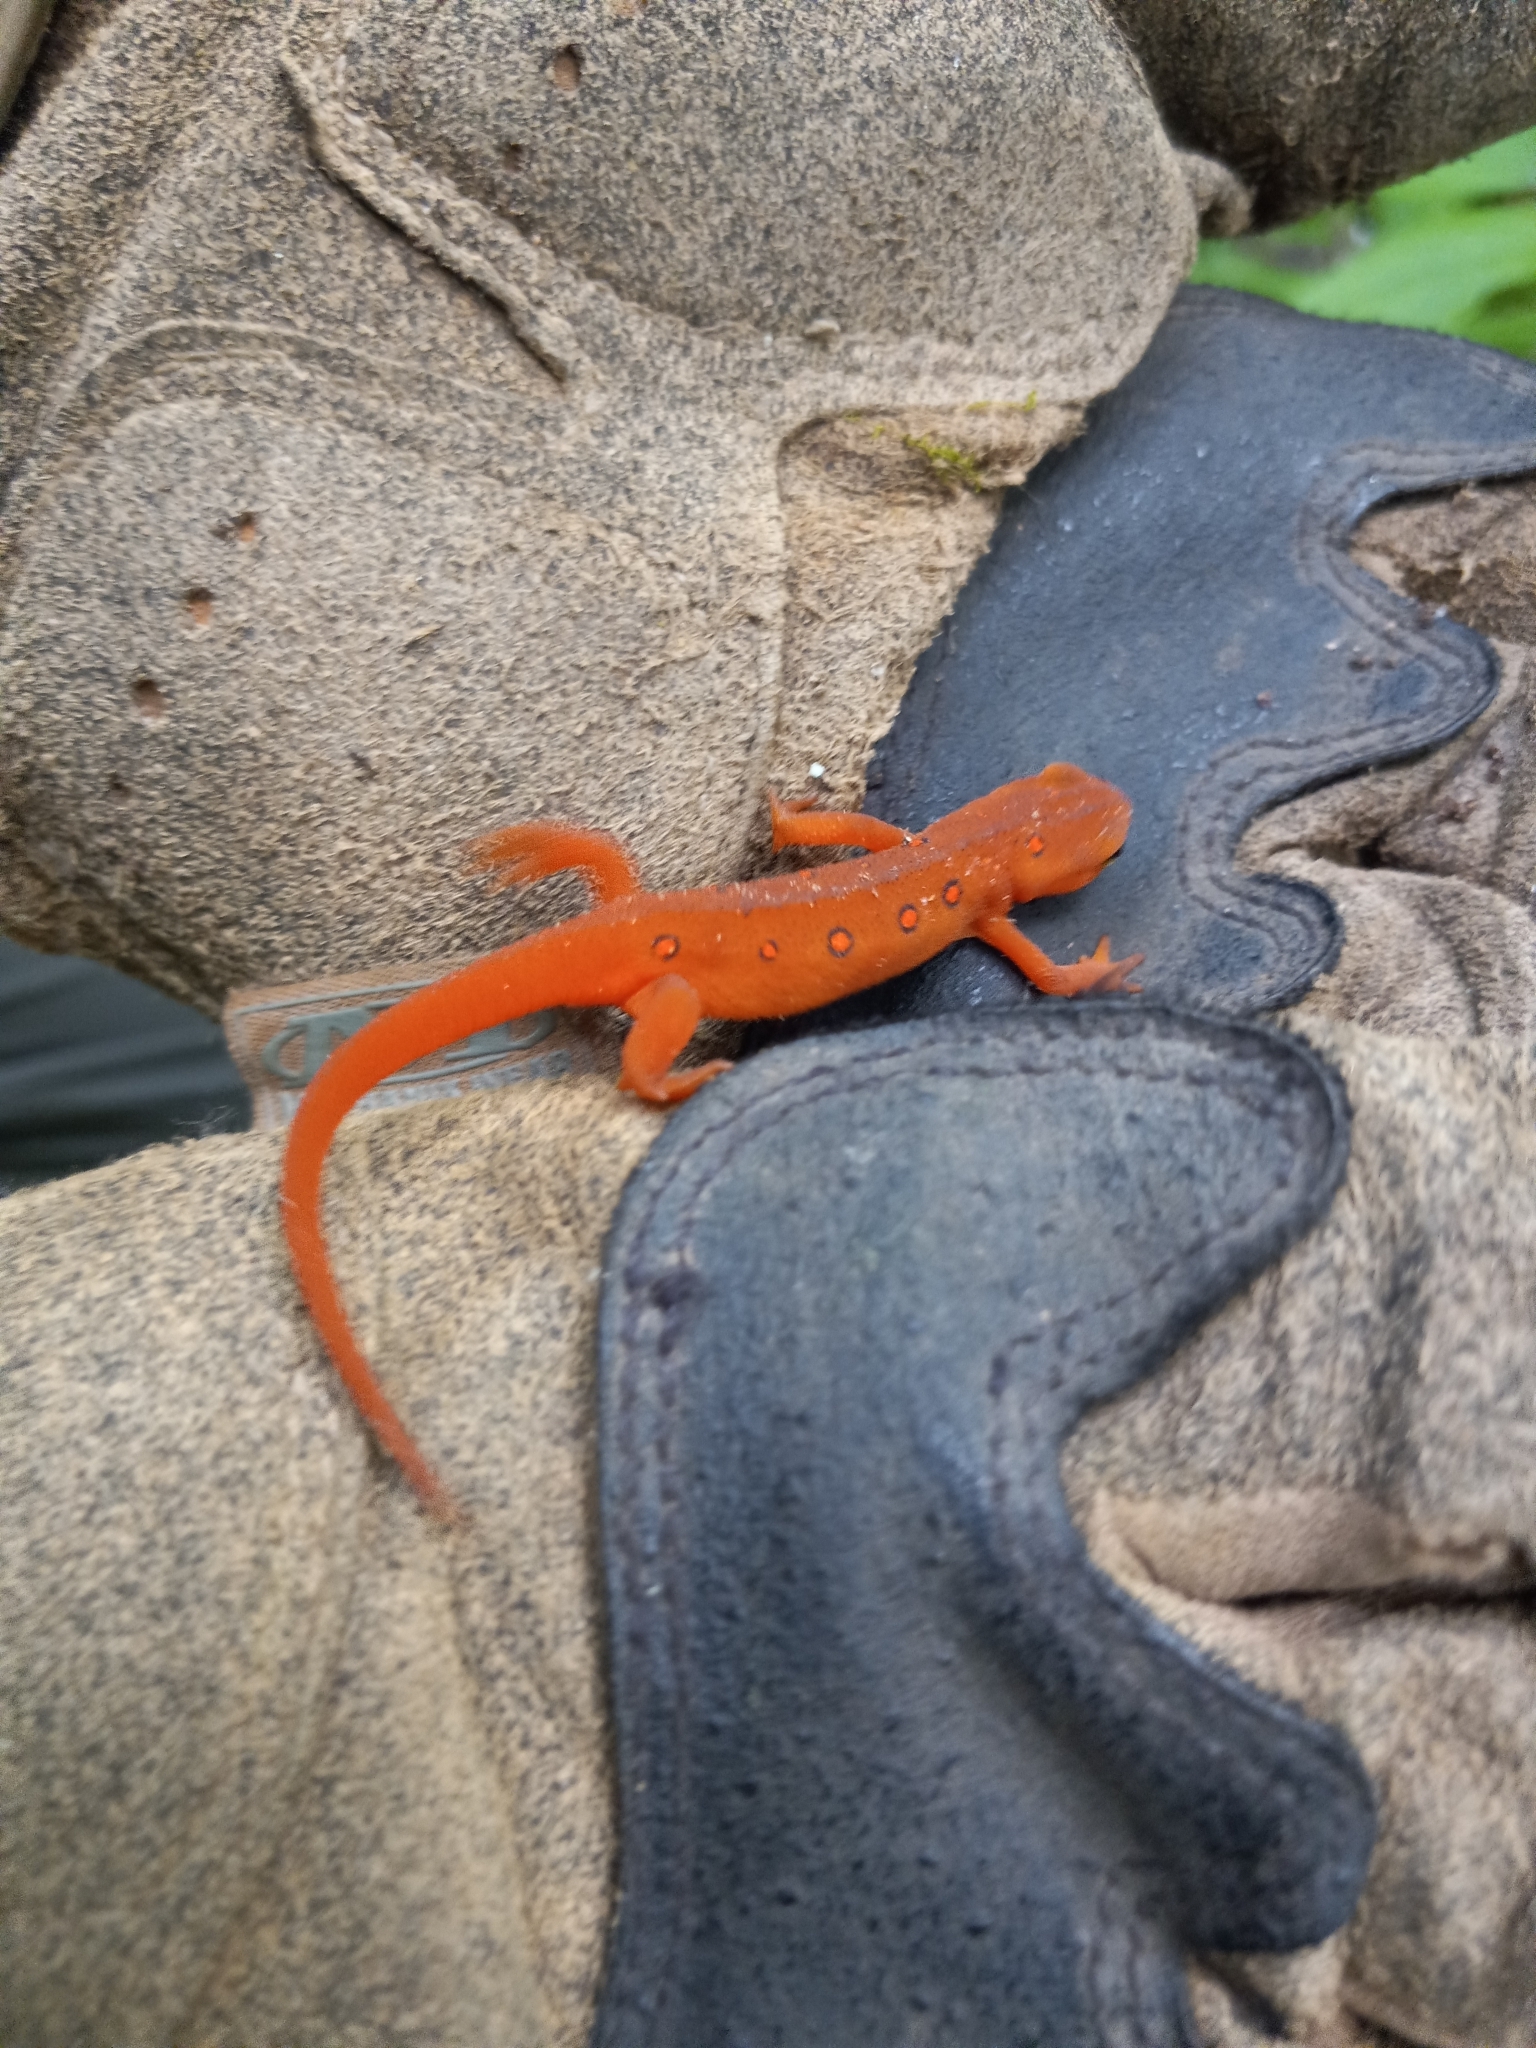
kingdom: Animalia
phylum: Chordata
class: Amphibia
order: Caudata
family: Salamandridae
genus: Notophthalmus
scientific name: Notophthalmus viridescens
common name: Eastern newt
